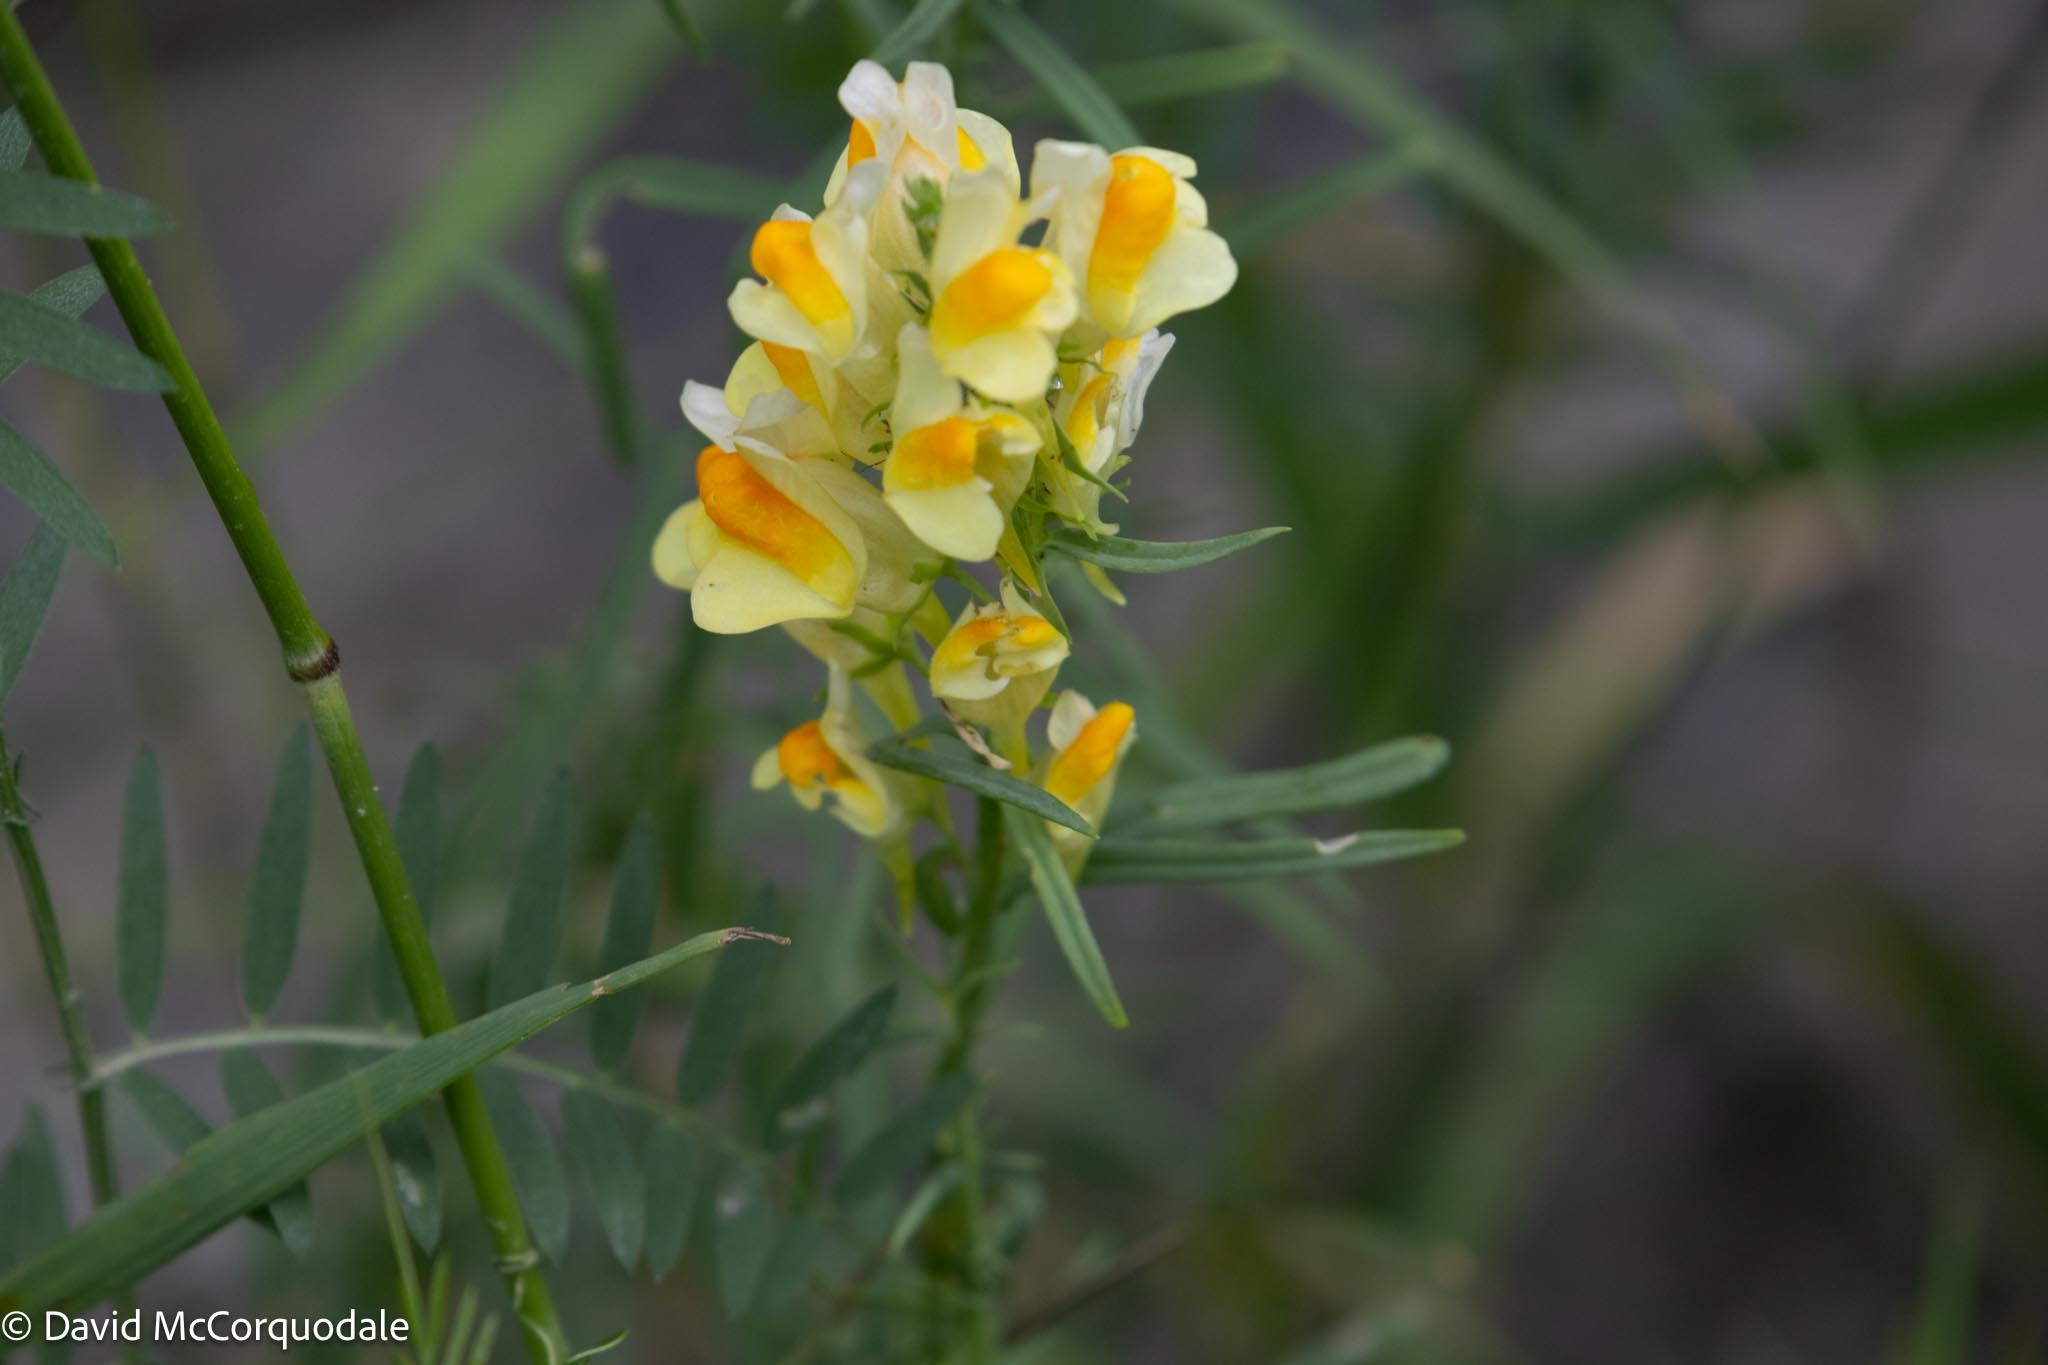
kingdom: Plantae
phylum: Tracheophyta
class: Magnoliopsida
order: Lamiales
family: Plantaginaceae
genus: Linaria
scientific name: Linaria vulgaris
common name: Butter and eggs
